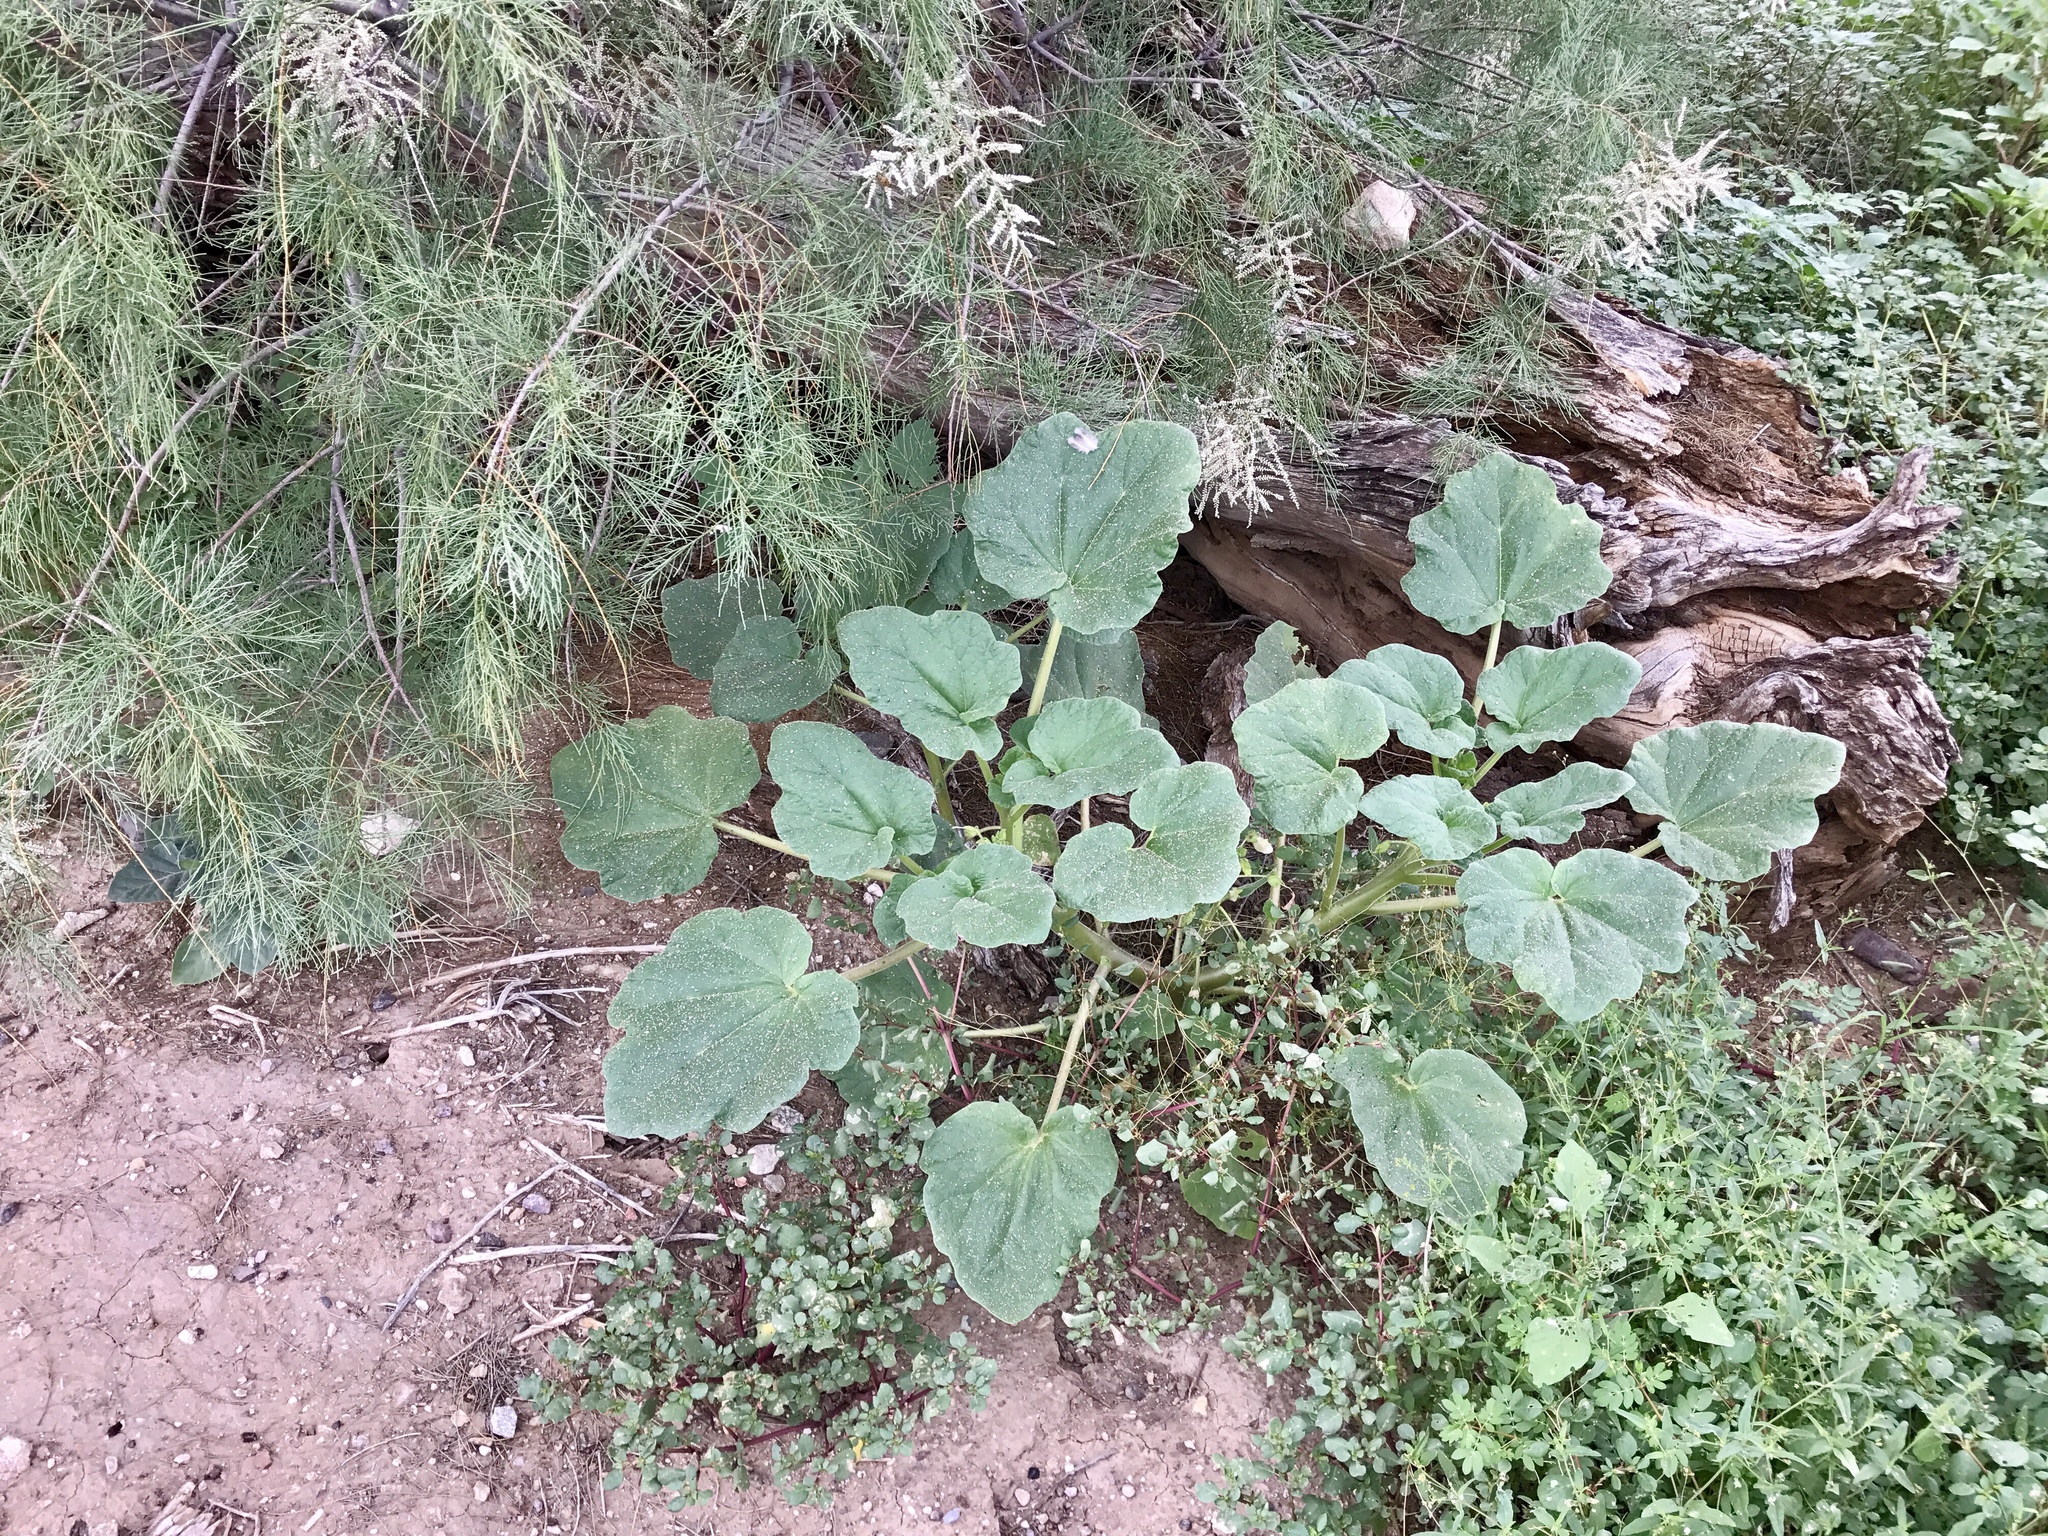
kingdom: Plantae
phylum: Tracheophyta
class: Magnoliopsida
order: Lamiales
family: Martyniaceae
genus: Proboscidea
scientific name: Proboscidea althaeifolia
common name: Desert unicorn-plant
